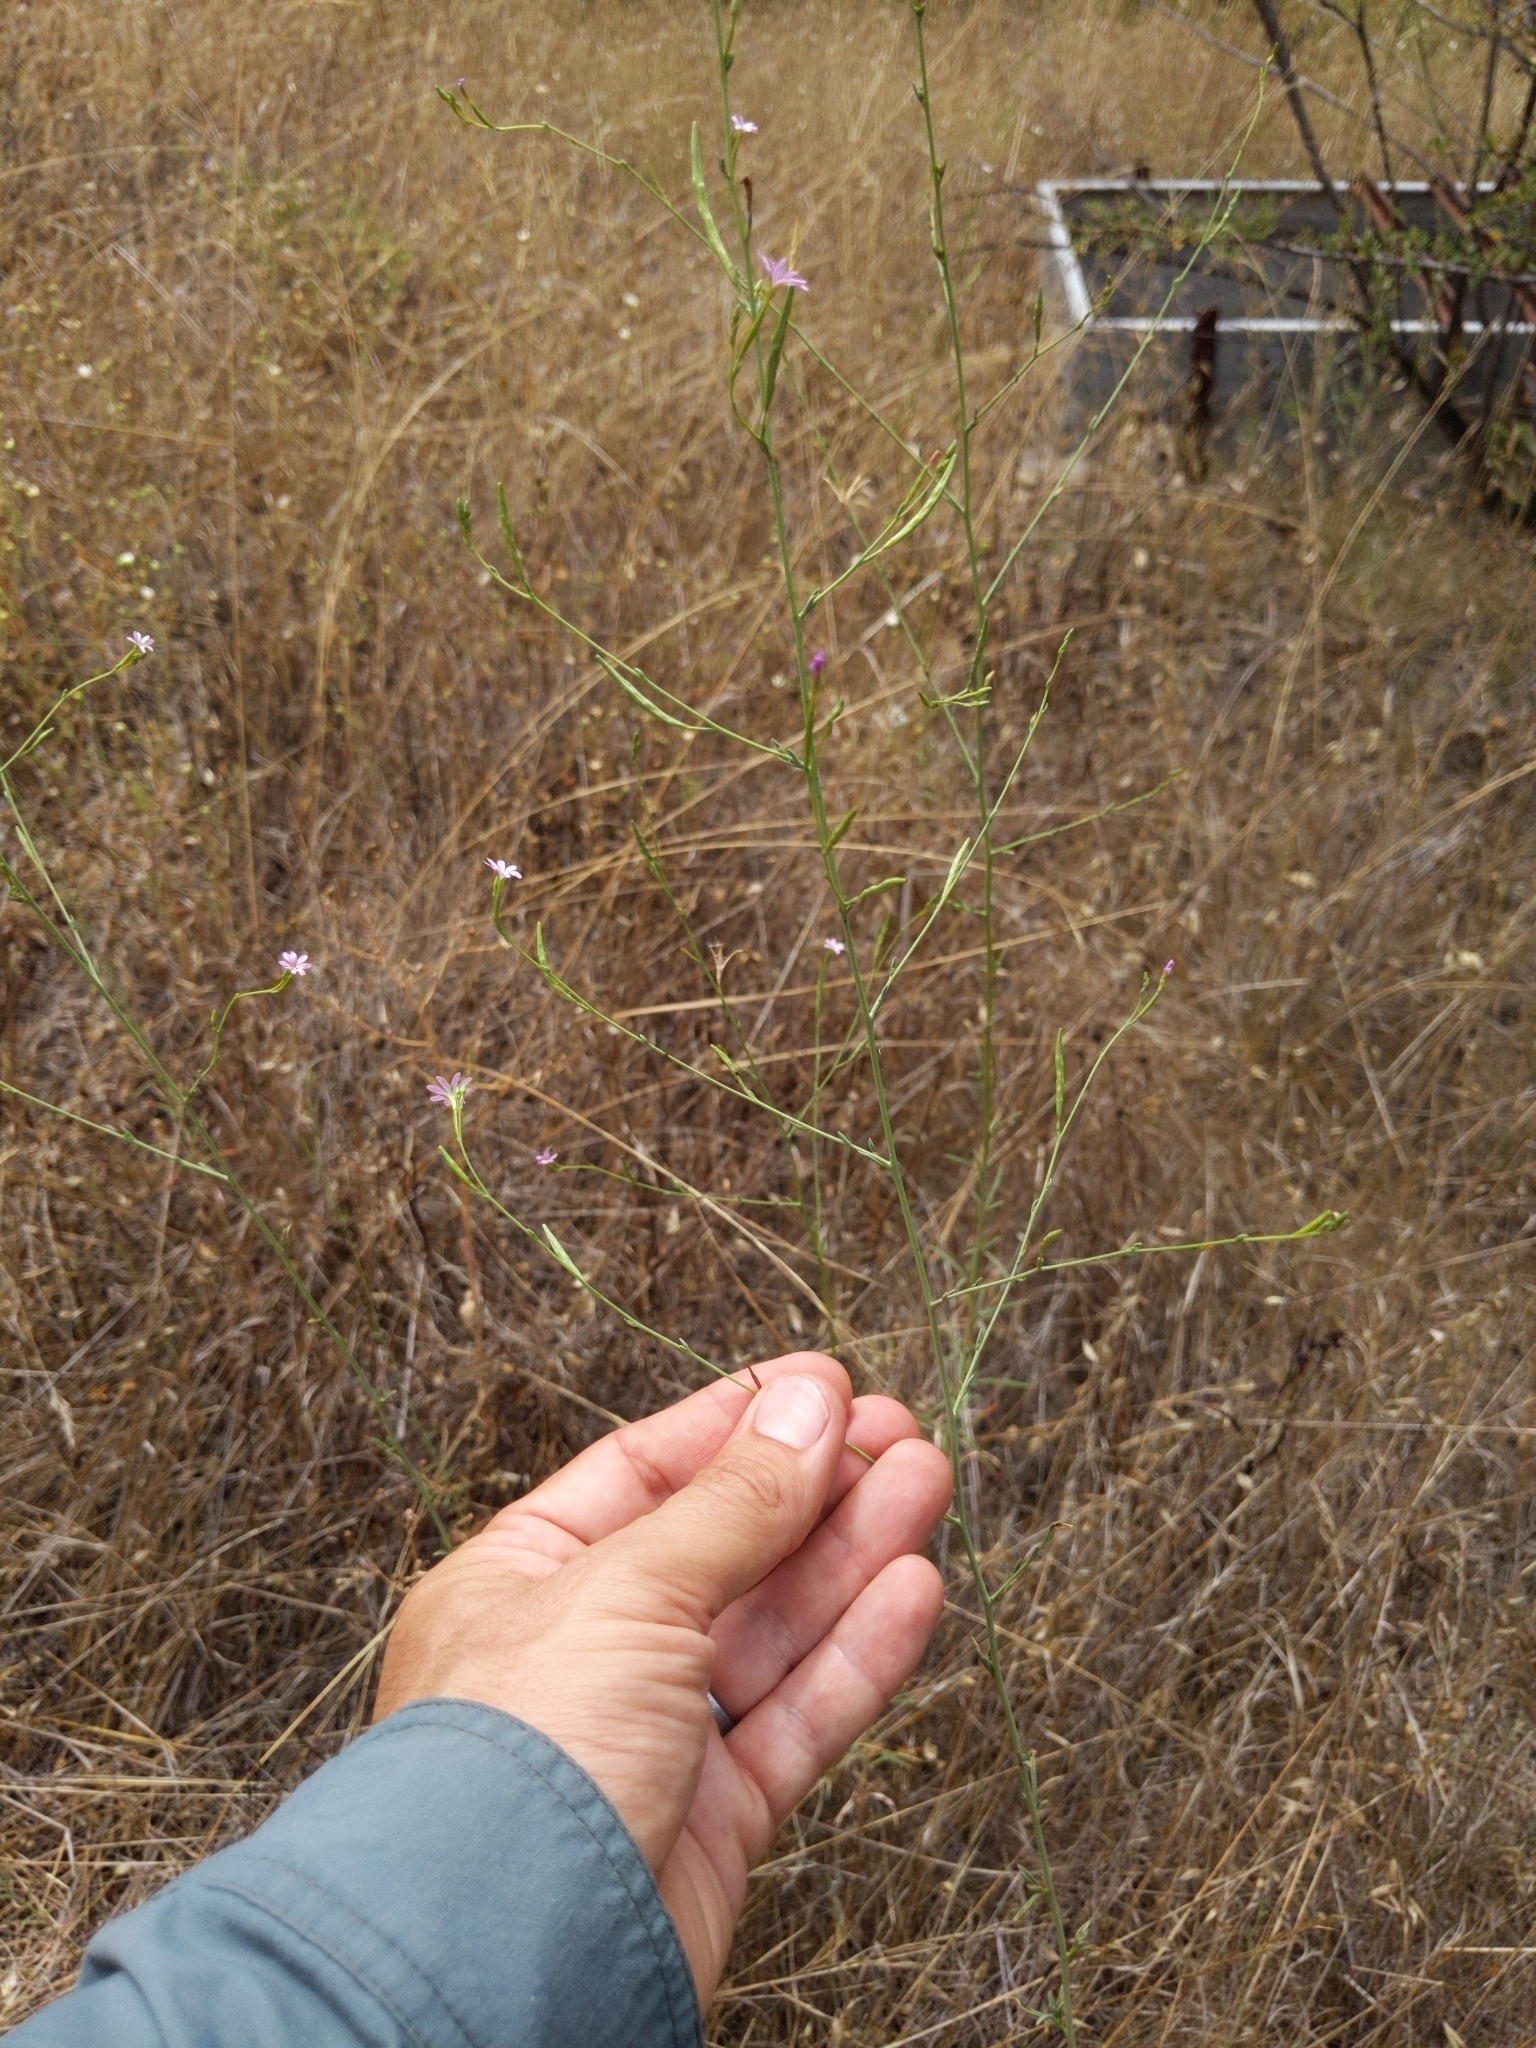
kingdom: Plantae
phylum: Tracheophyta
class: Magnoliopsida
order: Myrtales
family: Onagraceae
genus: Epilobium
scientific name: Epilobium brachycarpum
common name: Annual willowherb
